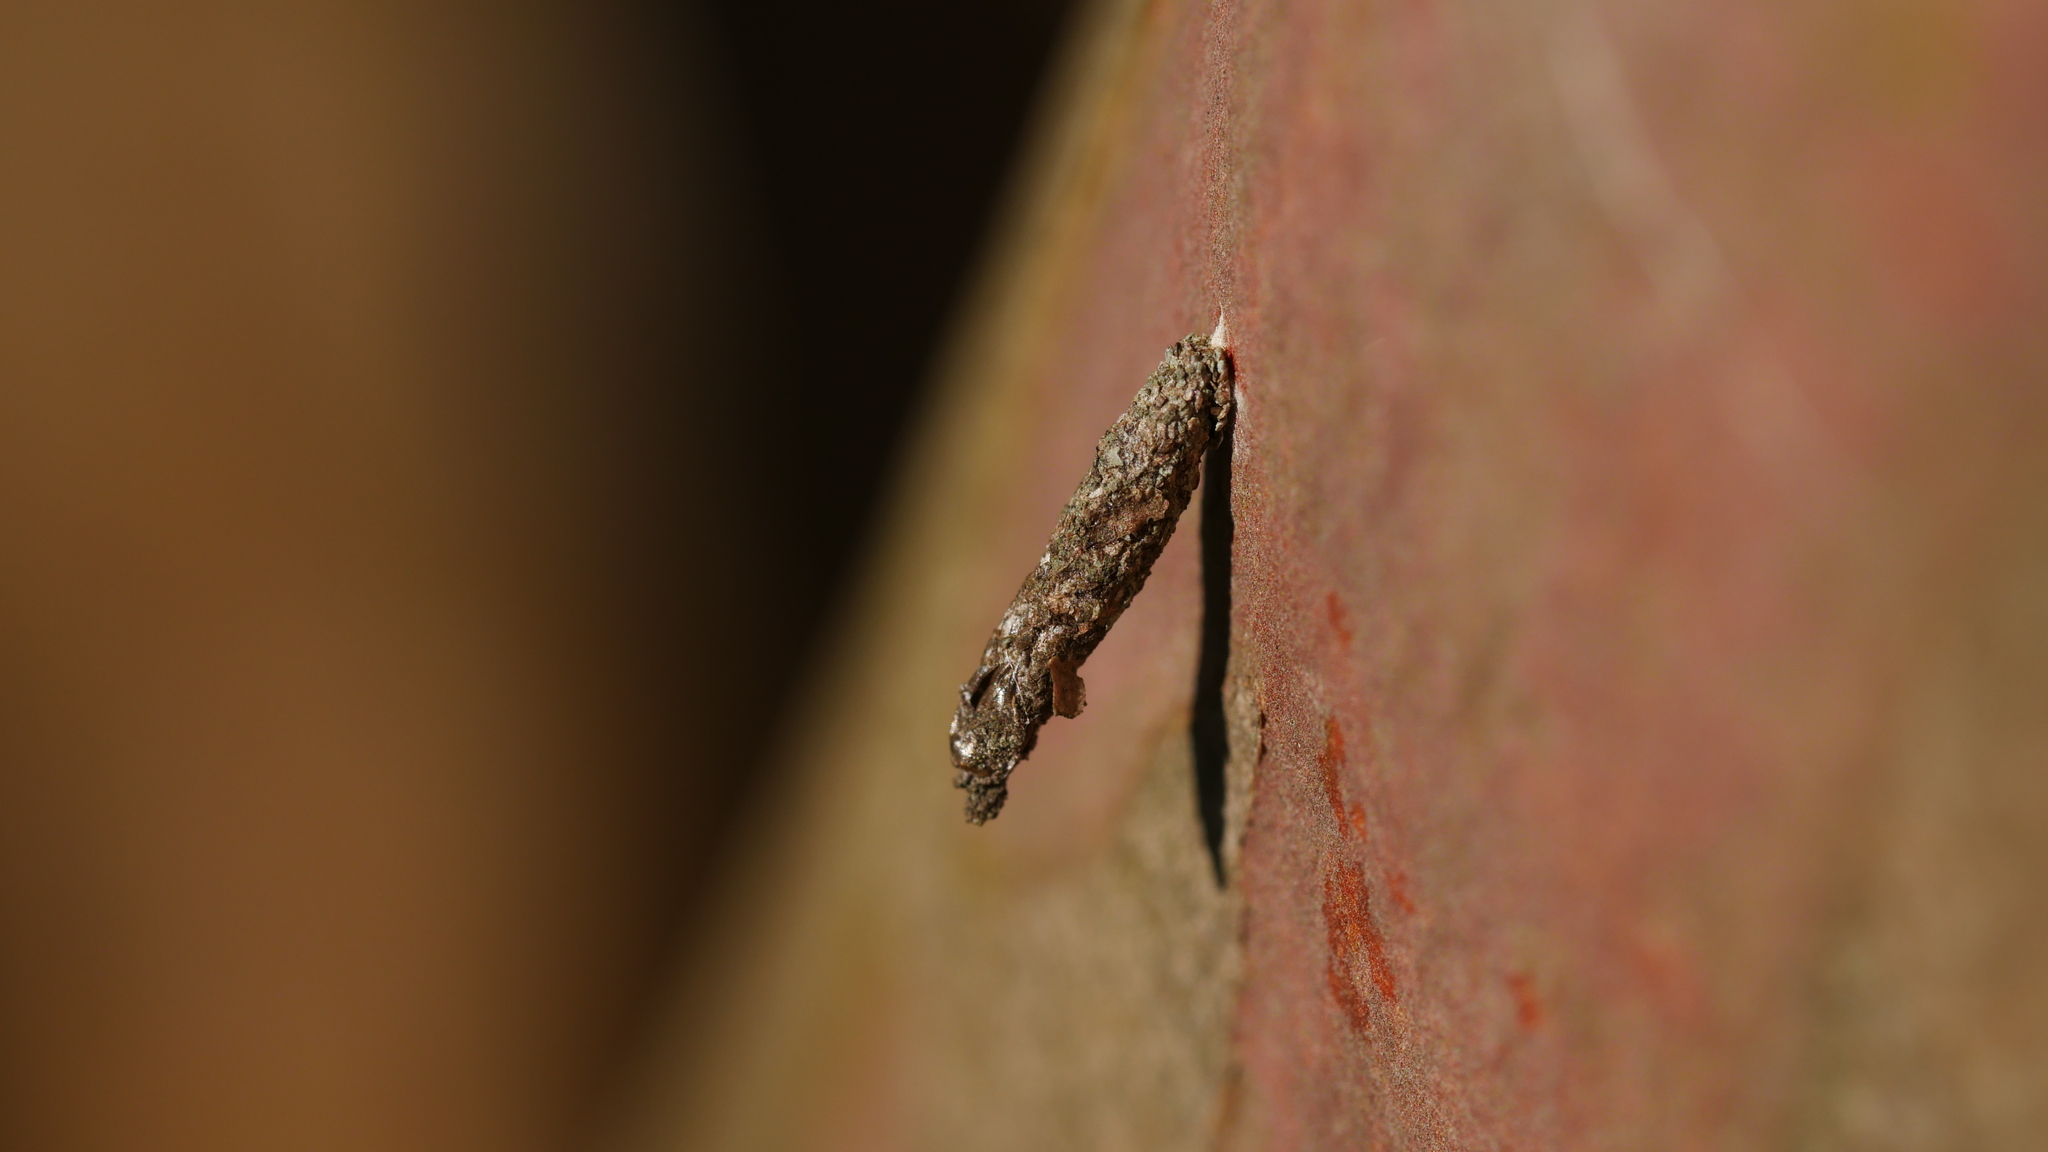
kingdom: Animalia
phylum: Arthropoda
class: Insecta
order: Lepidoptera
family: Psychidae
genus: Dahlica
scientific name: Dahlica walshella
